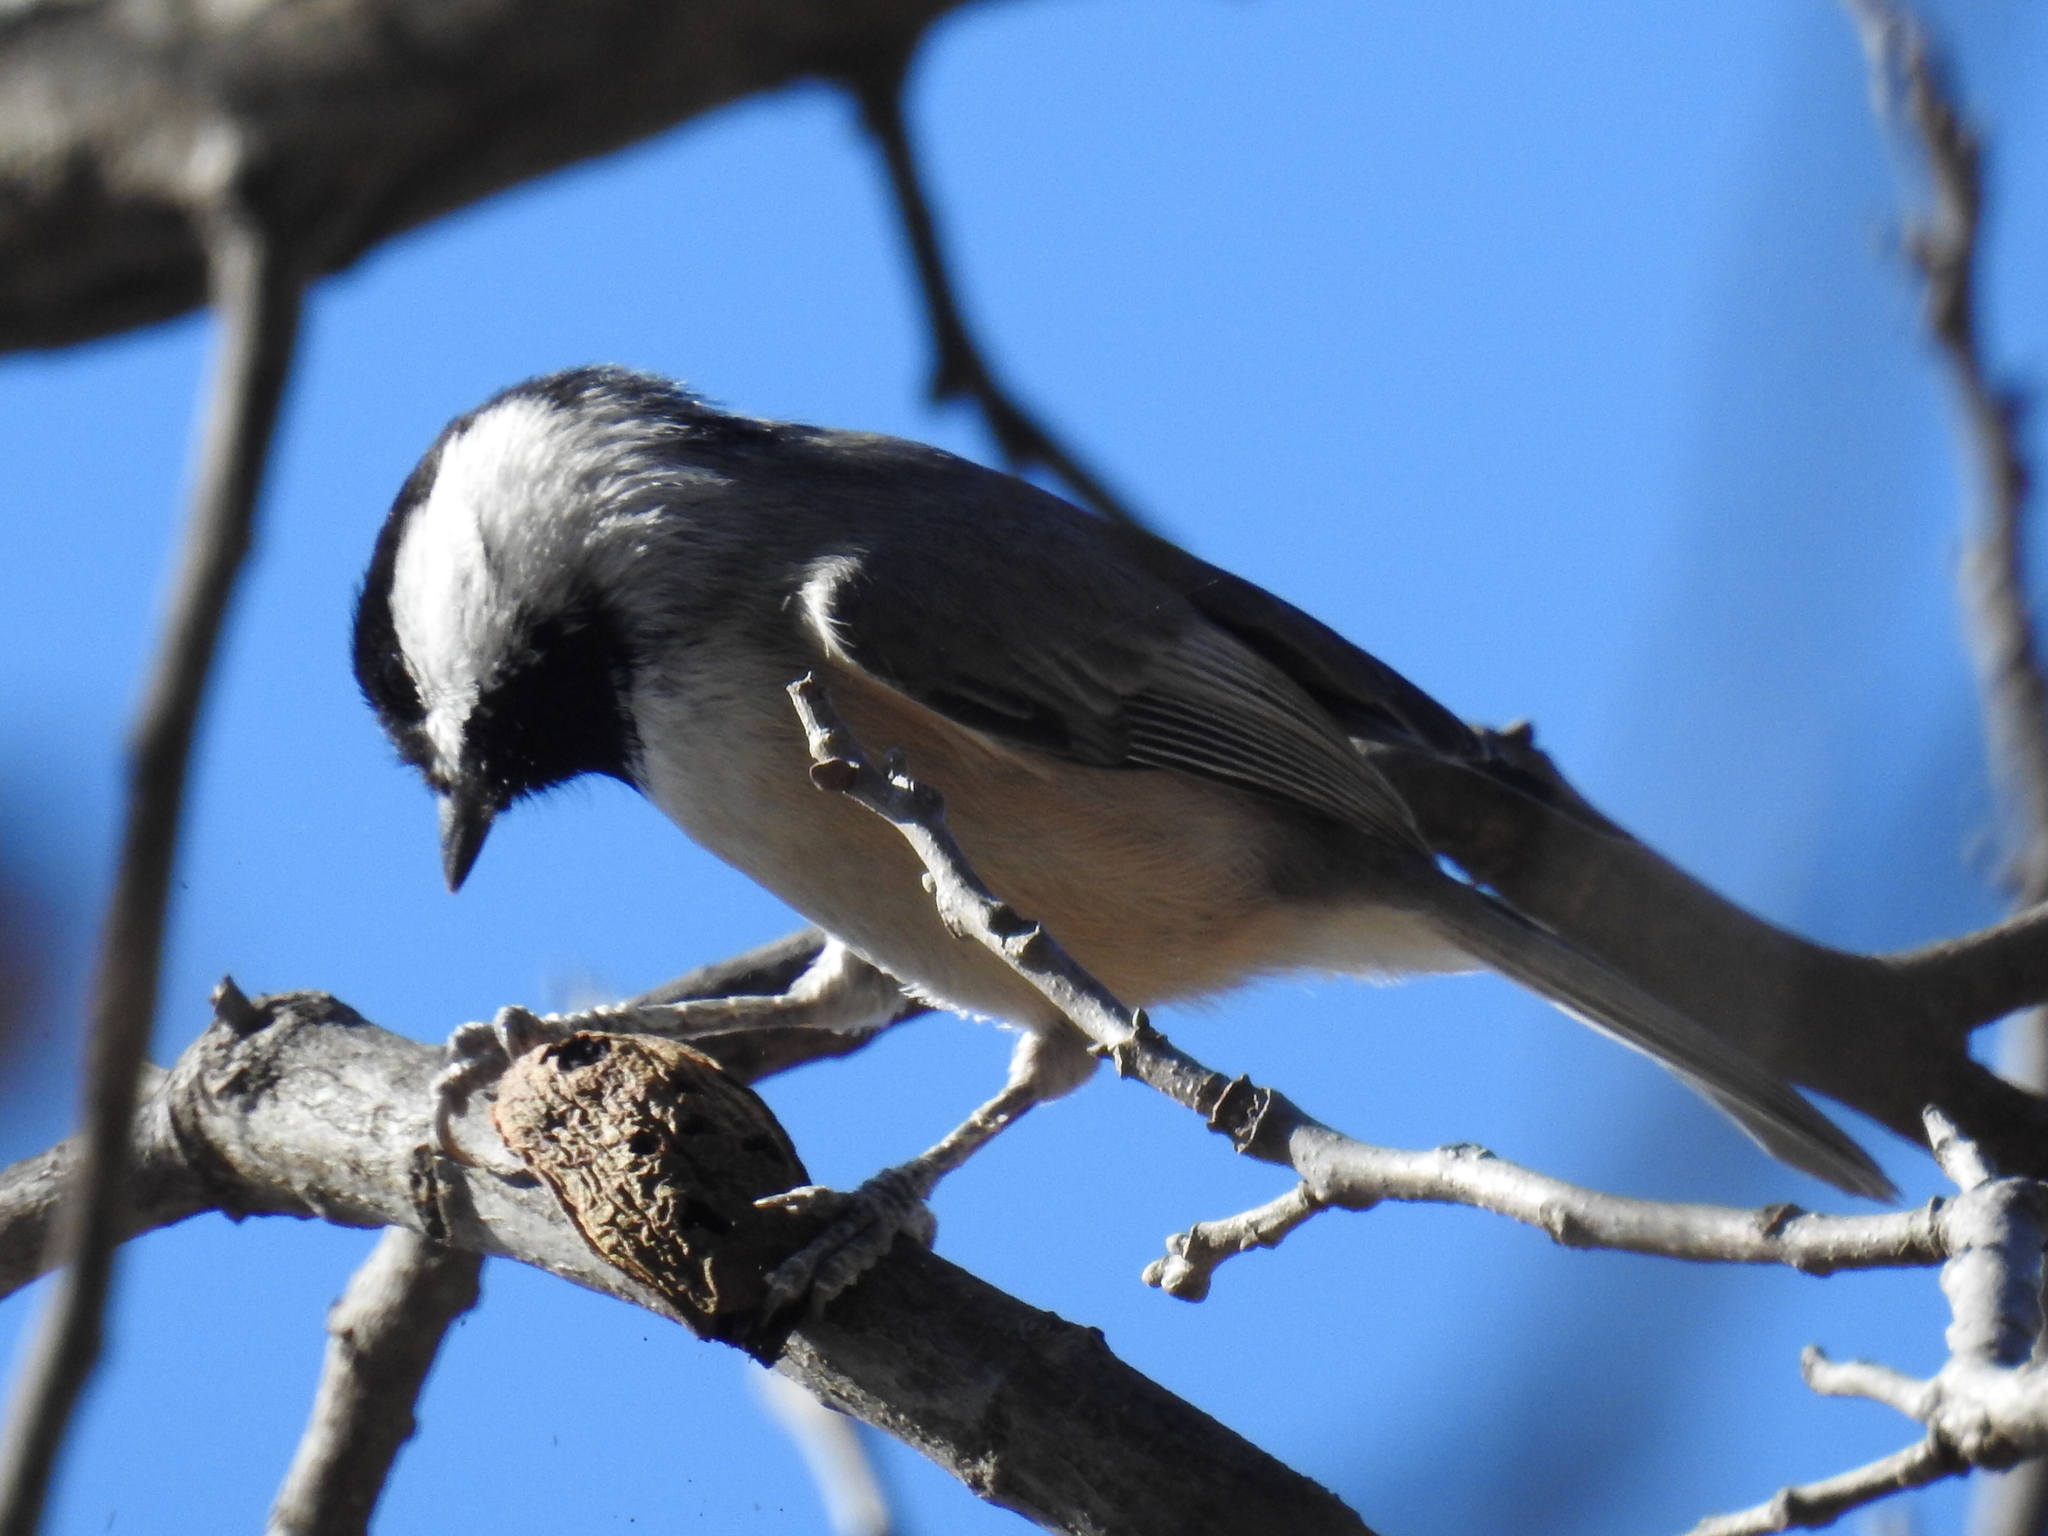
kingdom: Animalia
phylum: Chordata
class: Aves
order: Passeriformes
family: Paridae
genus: Poecile
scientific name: Poecile carolinensis
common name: Carolina chickadee
